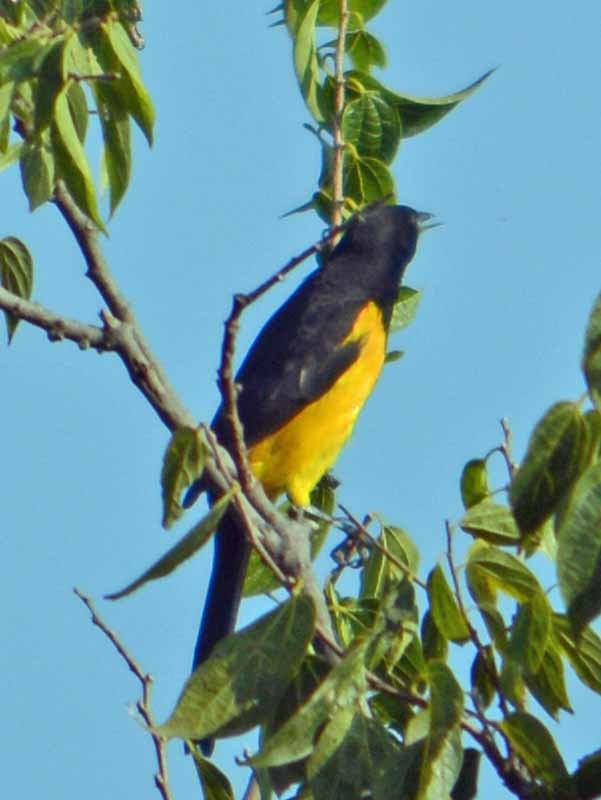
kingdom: Animalia
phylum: Chordata
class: Aves
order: Passeriformes
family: Icteridae
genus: Icterus
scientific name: Icterus wagleri
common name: Black-vented oriole
